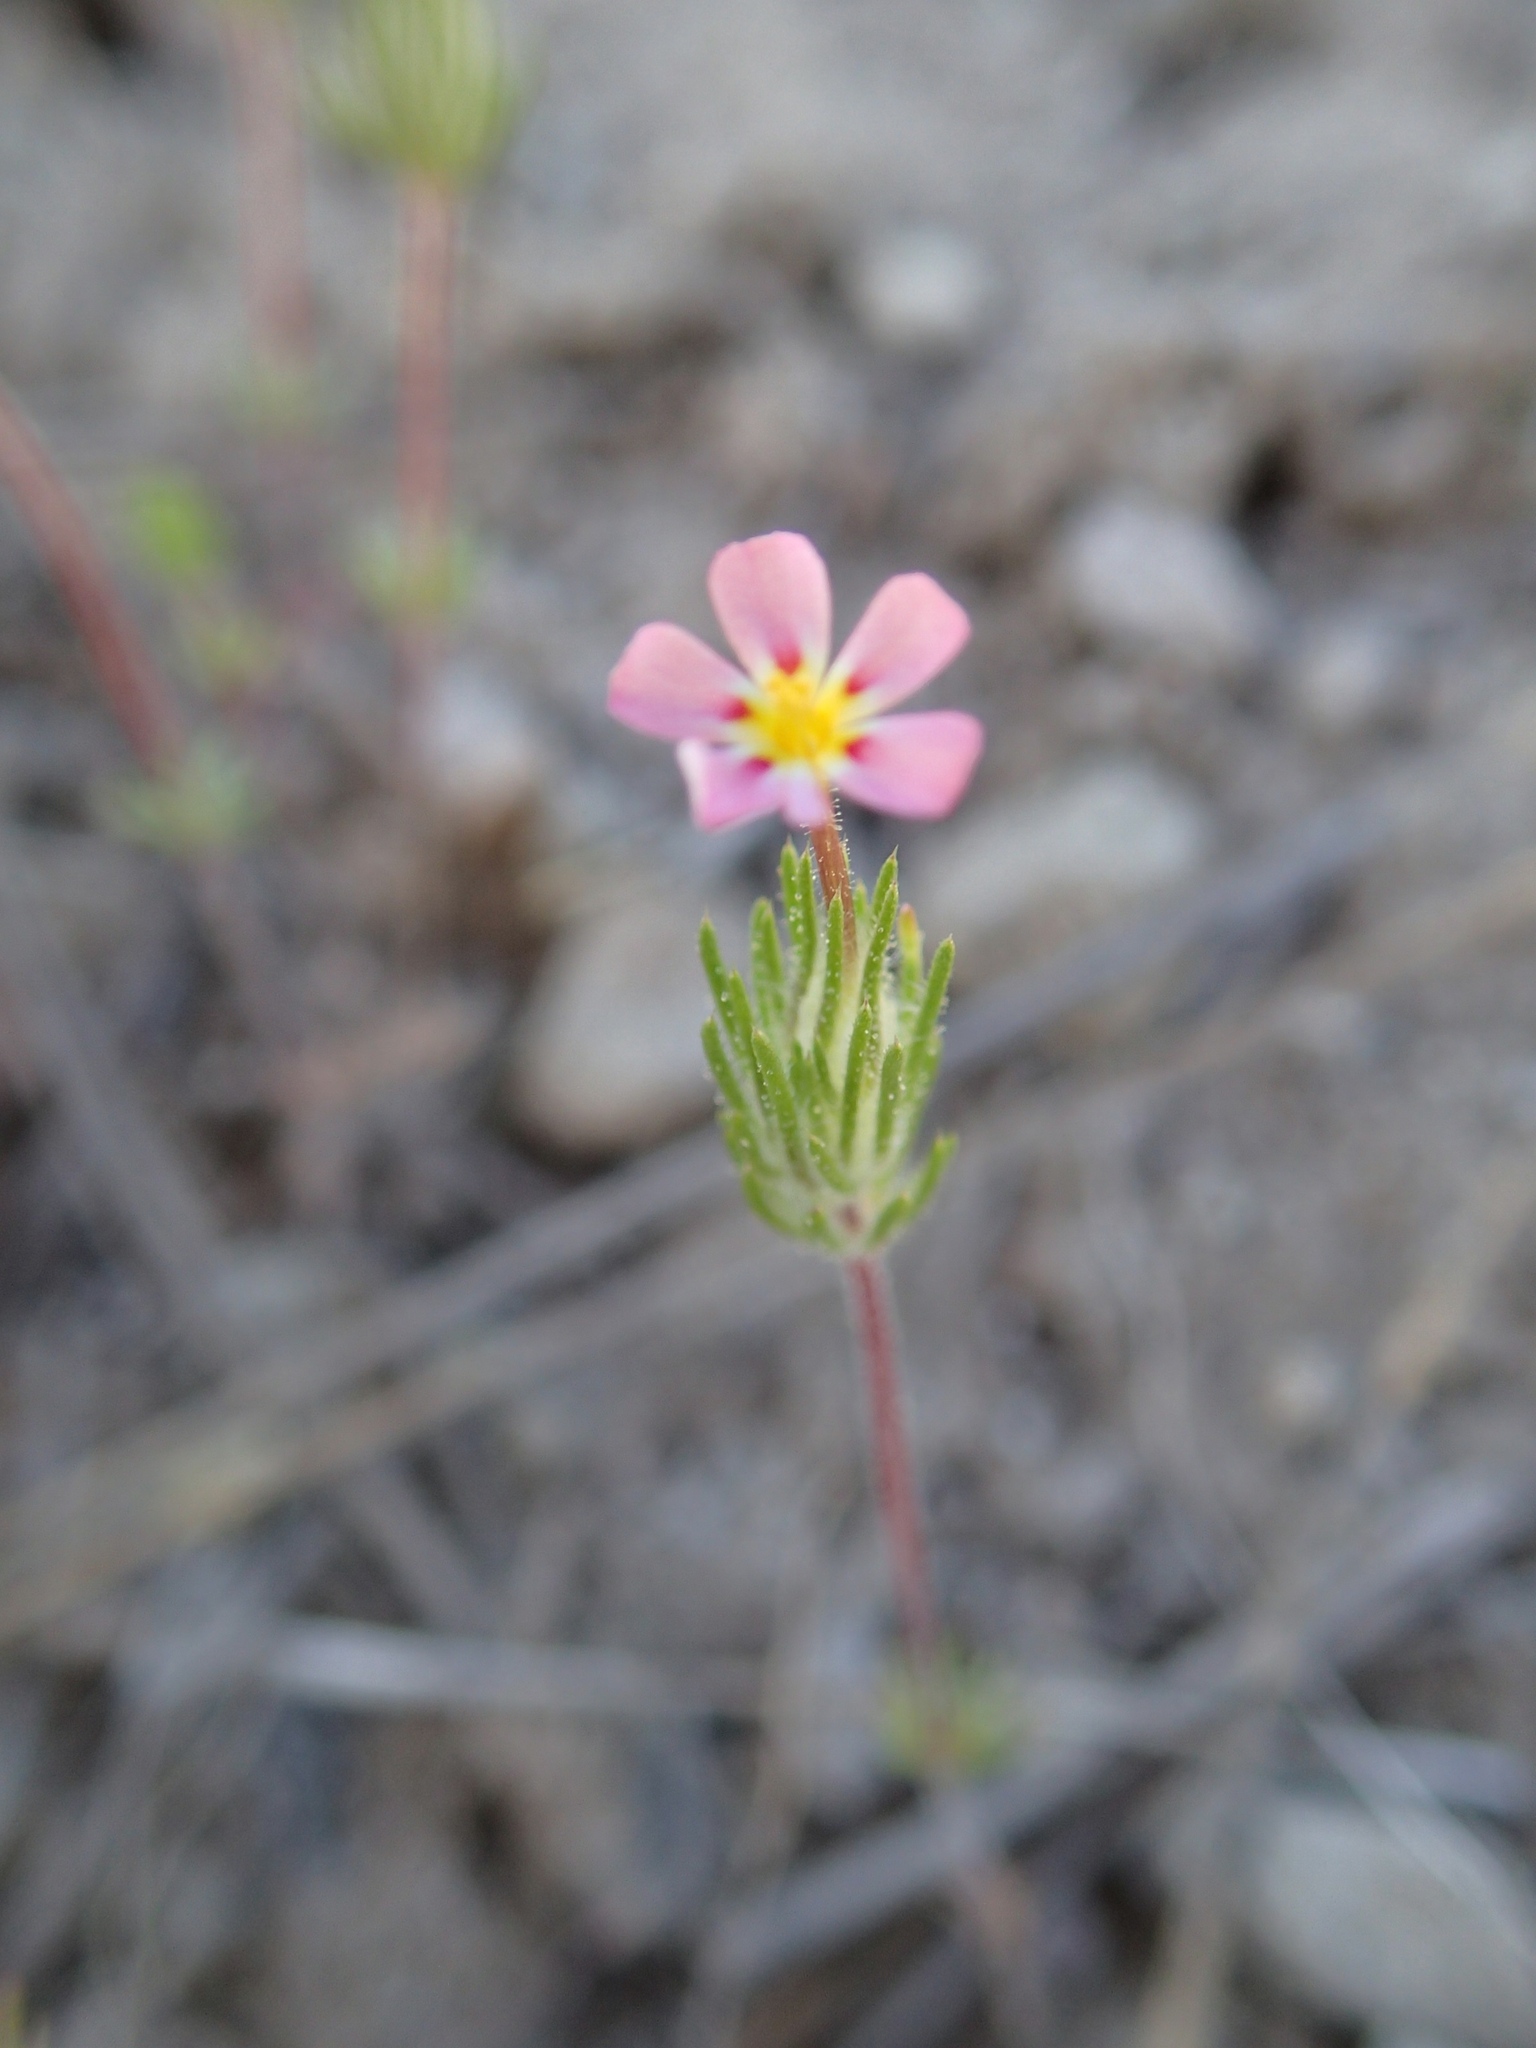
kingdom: Plantae
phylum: Tracheophyta
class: Magnoliopsida
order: Ericales
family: Polemoniaceae
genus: Leptosiphon
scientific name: Leptosiphon ciliatus
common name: Whiskerbrush
